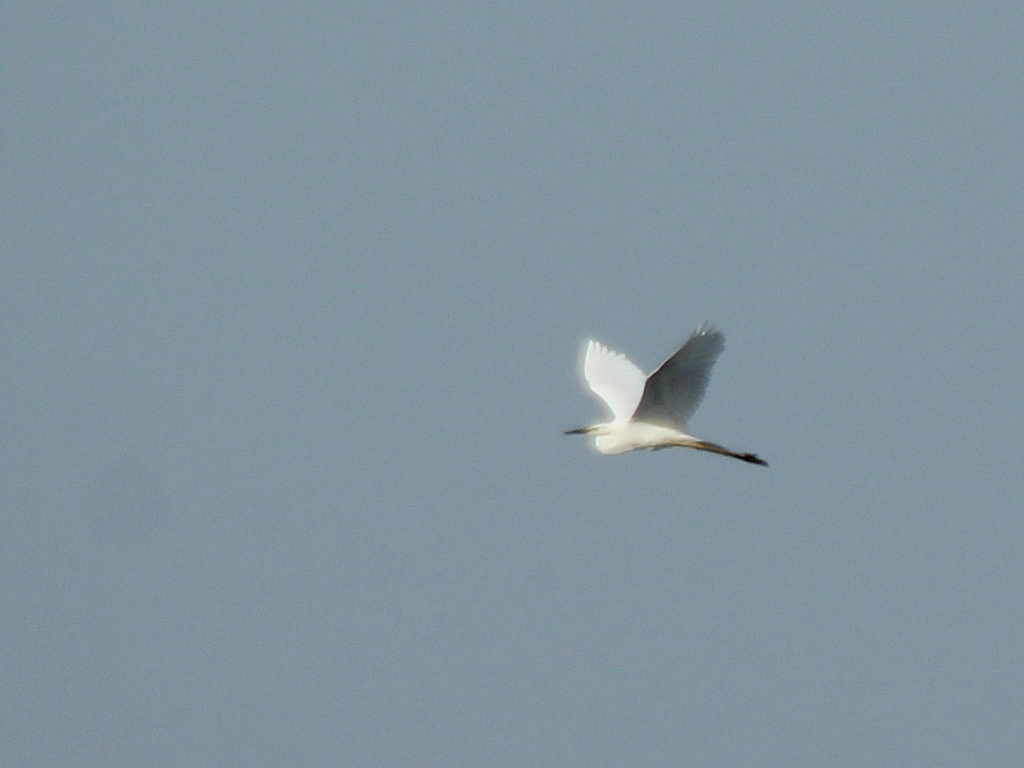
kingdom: Animalia
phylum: Chordata
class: Aves
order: Pelecaniformes
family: Ardeidae
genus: Ardea
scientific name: Ardea alba
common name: Great egret
